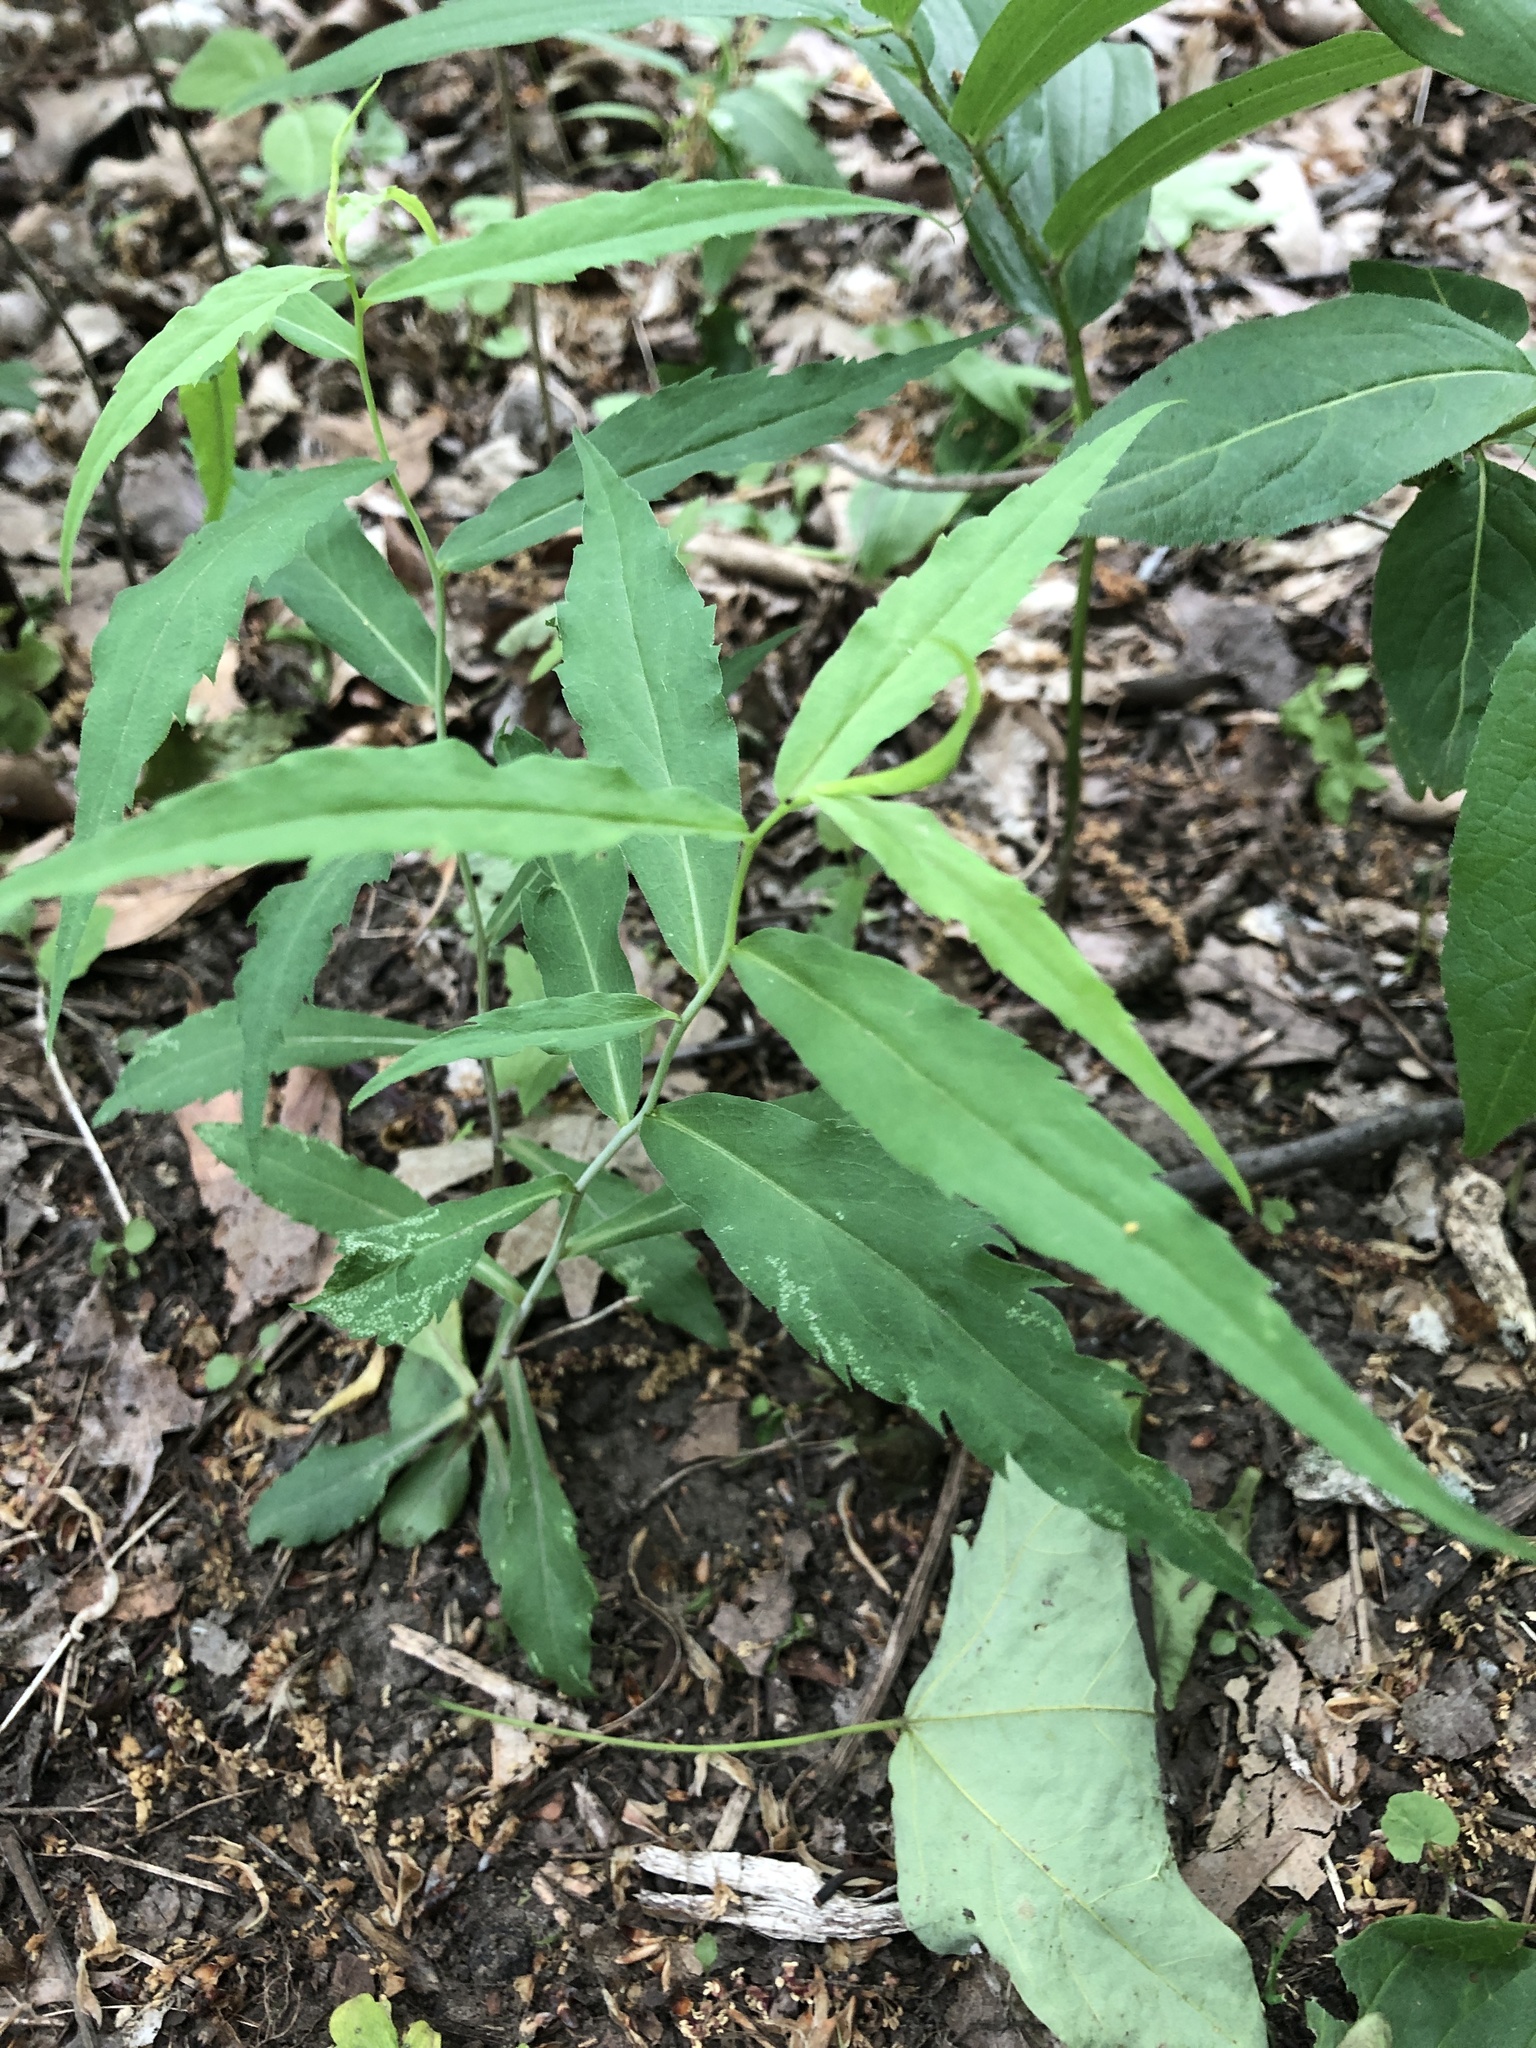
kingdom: Plantae
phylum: Tracheophyta
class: Magnoliopsida
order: Asterales
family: Asteraceae
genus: Solidago
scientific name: Solidago caesia
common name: Woodland goldenrod
